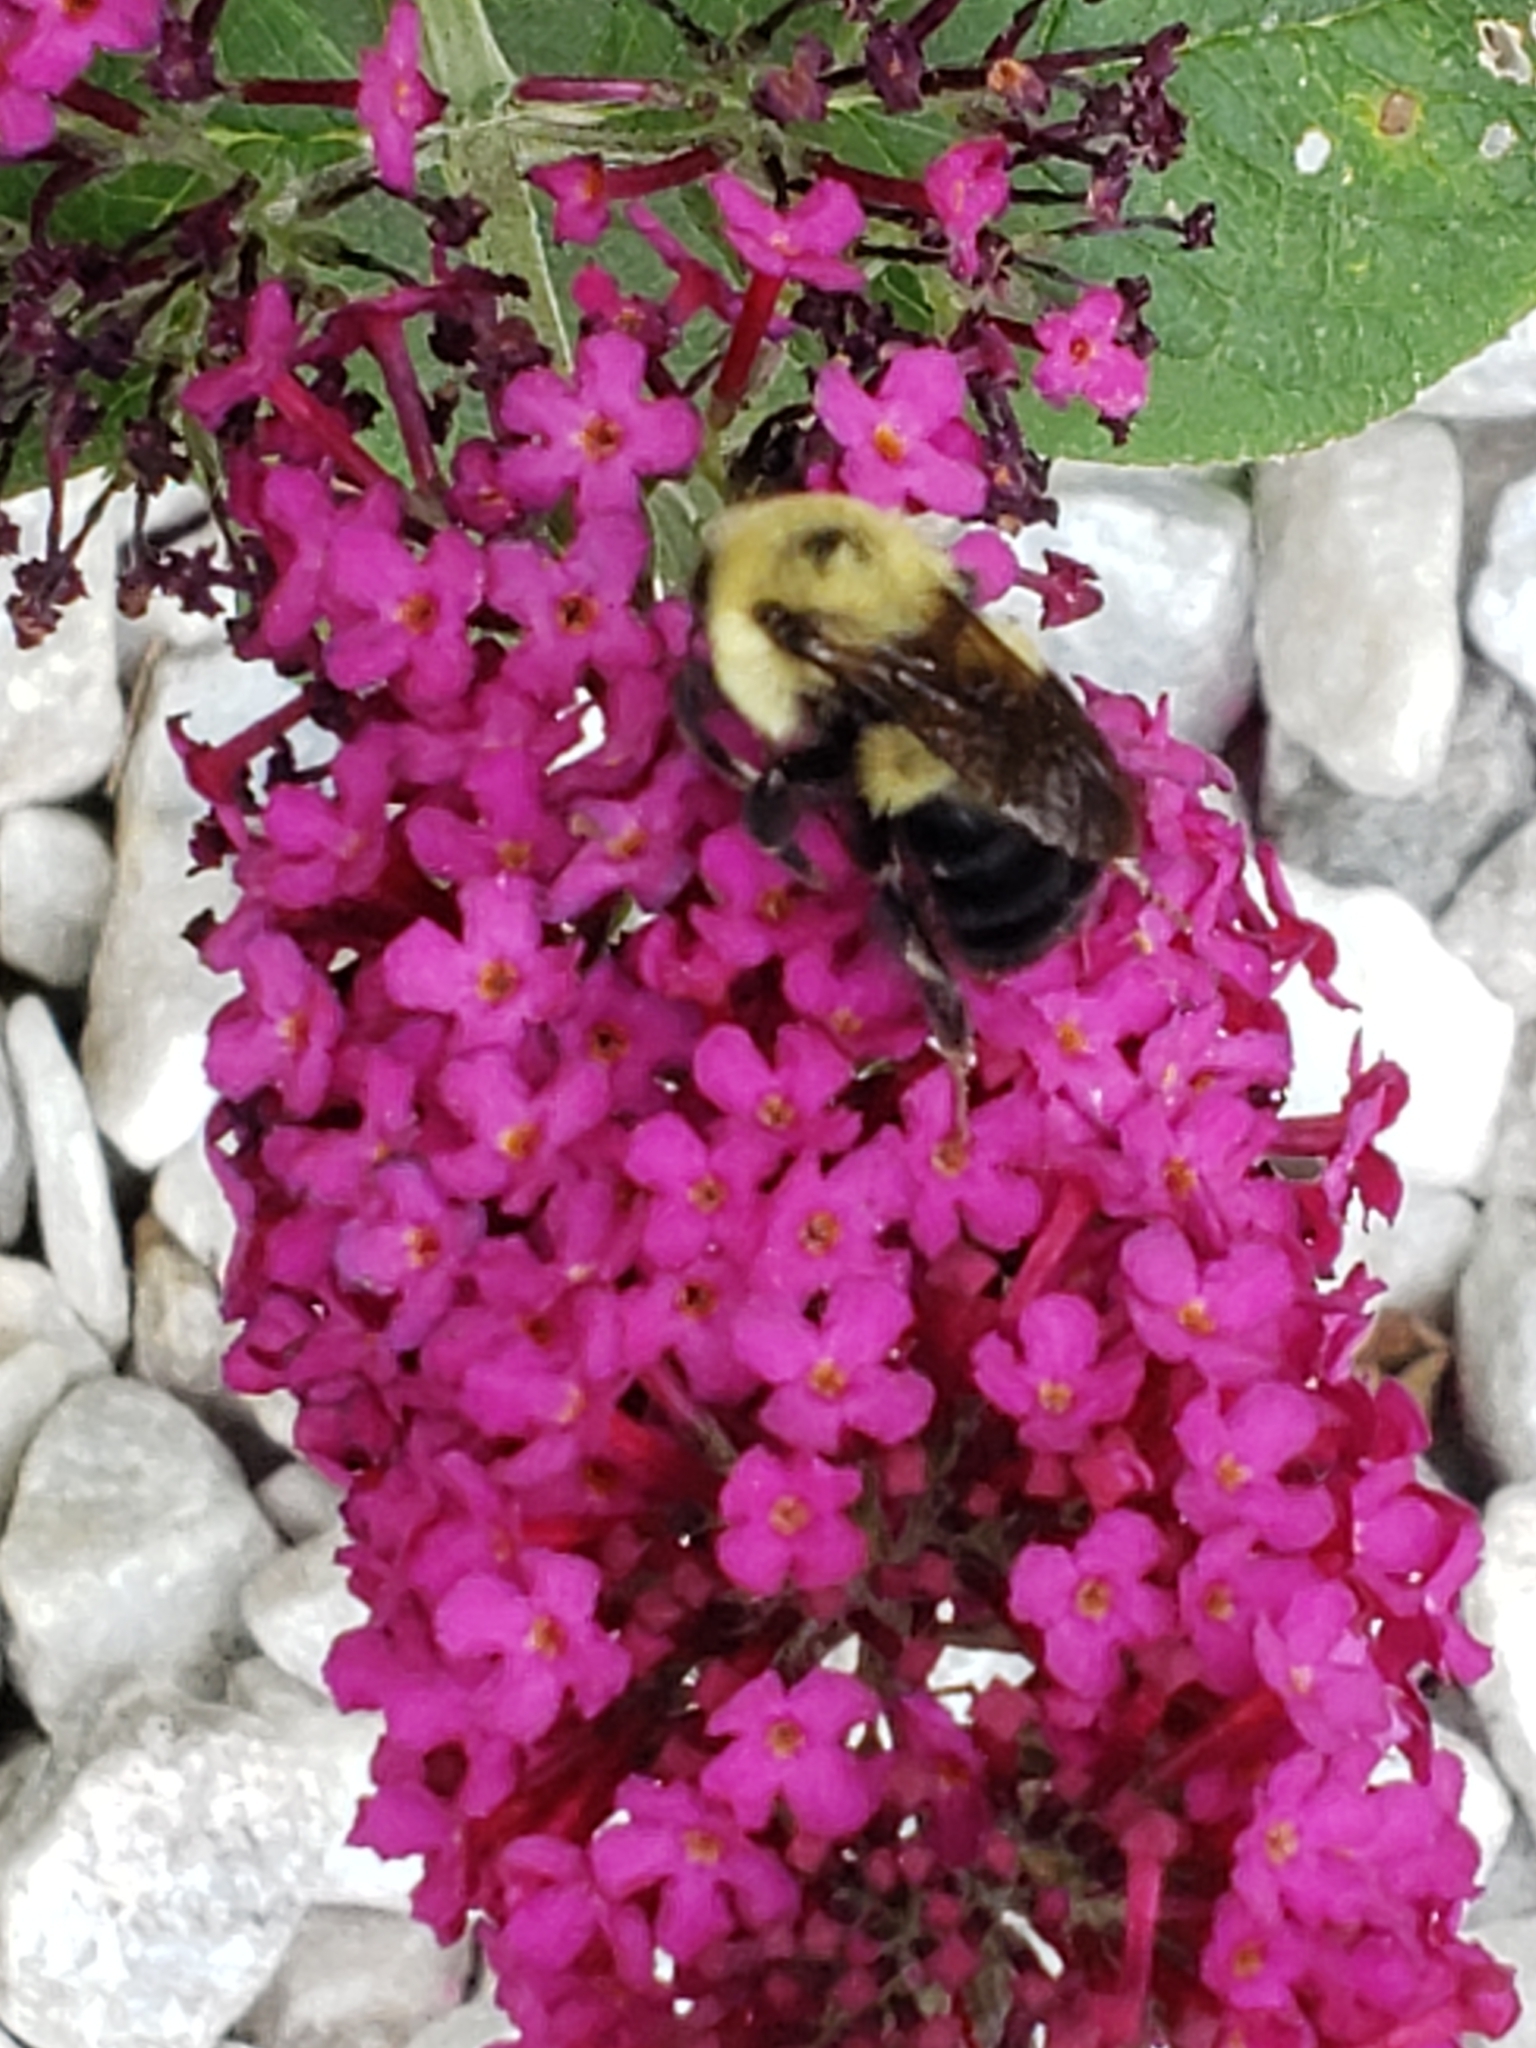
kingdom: Animalia
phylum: Arthropoda
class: Insecta
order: Hymenoptera
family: Apidae
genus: Bombus
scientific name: Bombus bimaculatus
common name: Two-spotted bumble bee
